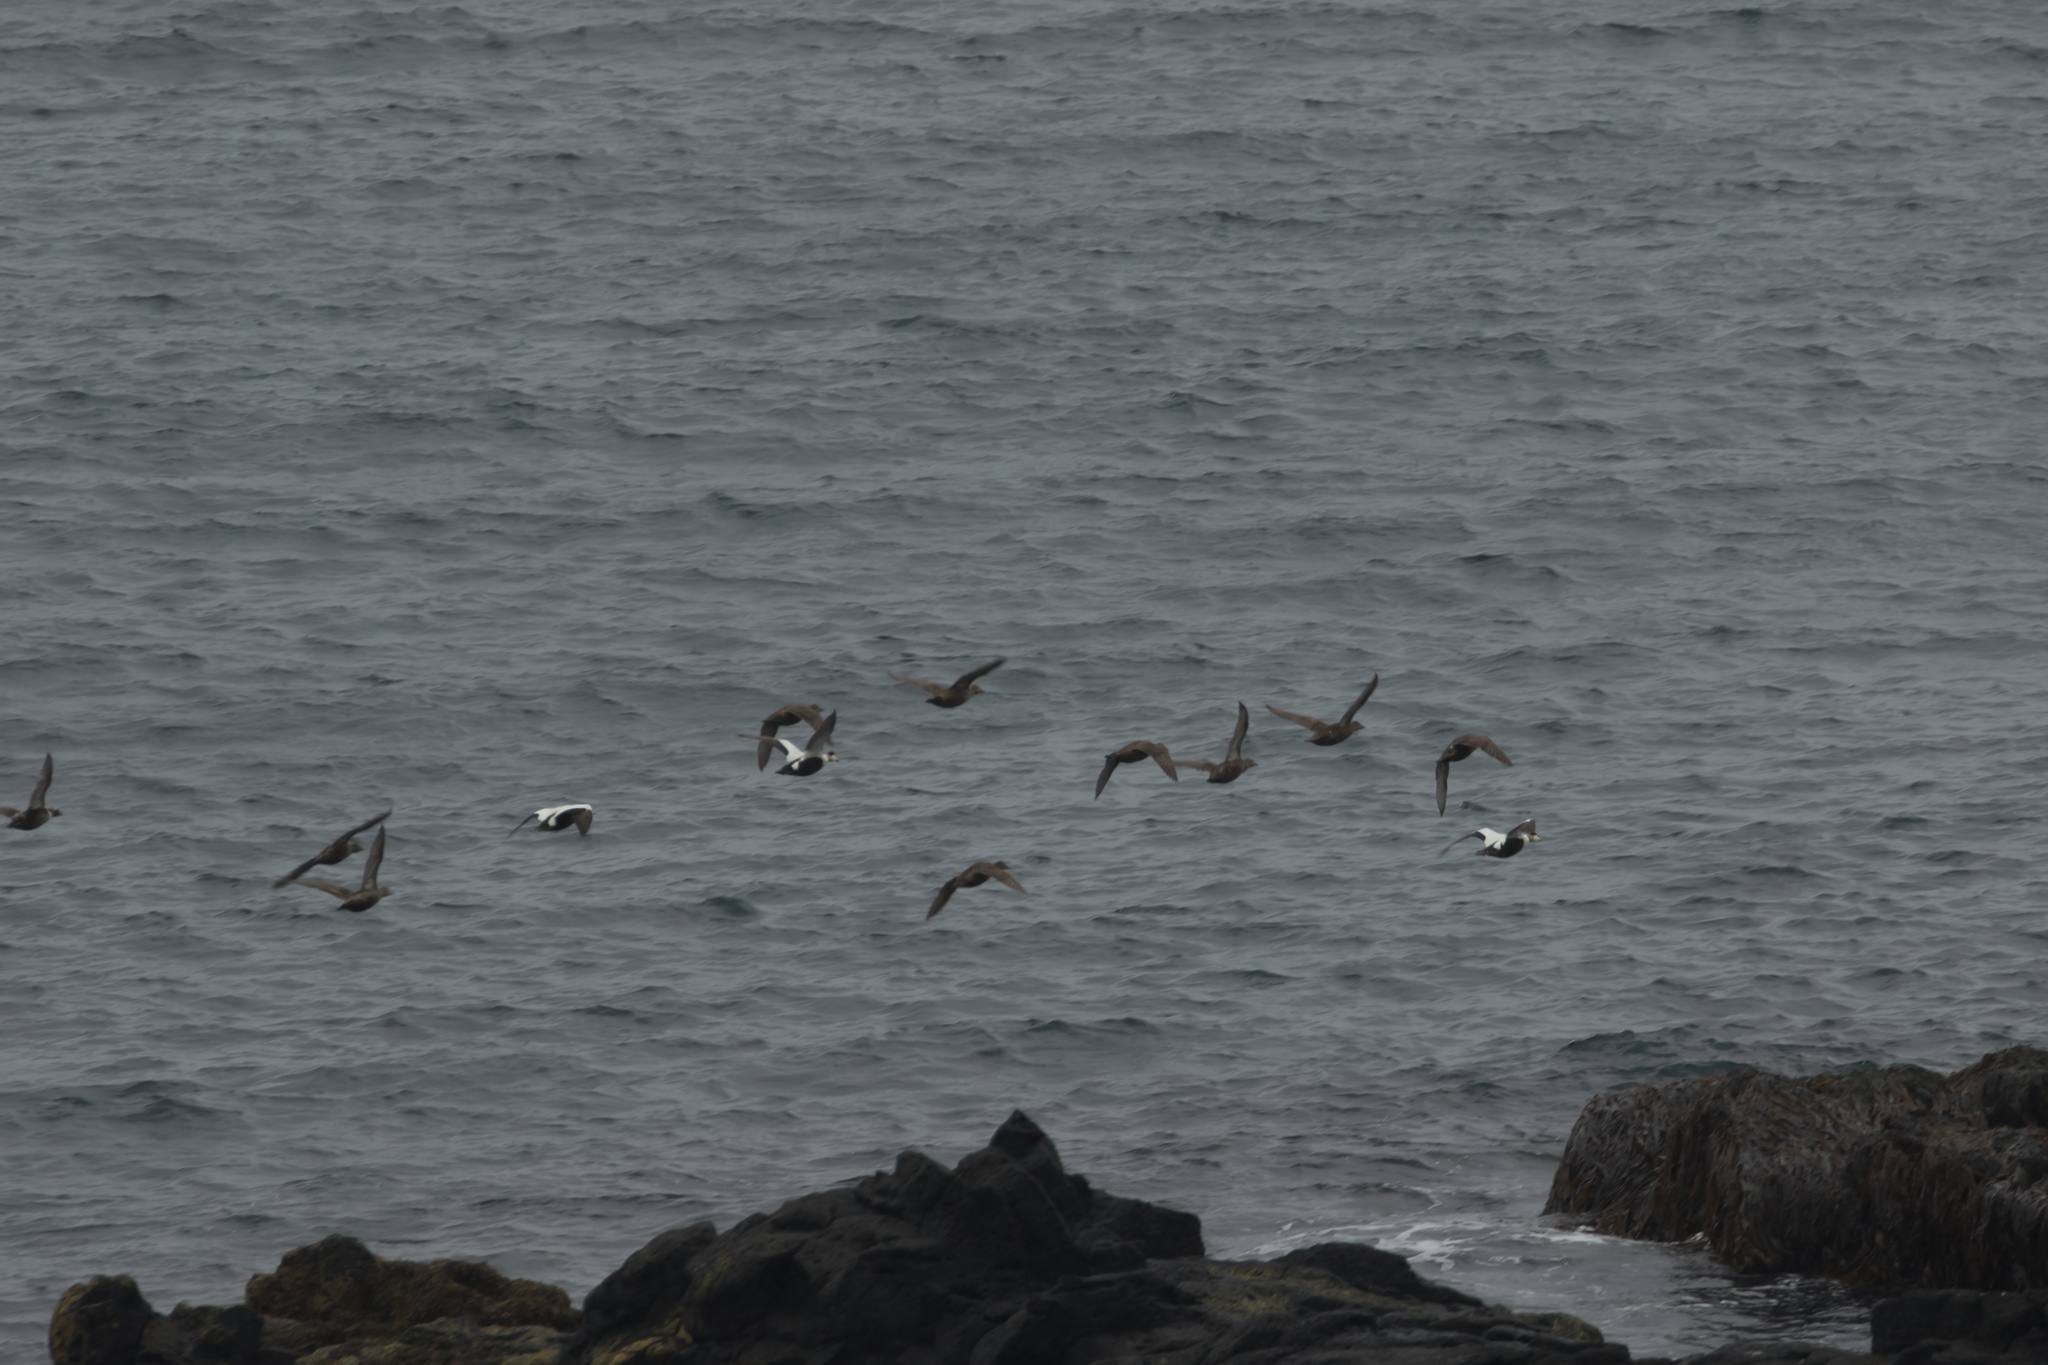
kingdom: Animalia
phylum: Chordata
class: Aves
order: Anseriformes
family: Anatidae
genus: Somateria
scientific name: Somateria mollissima
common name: Common eider
